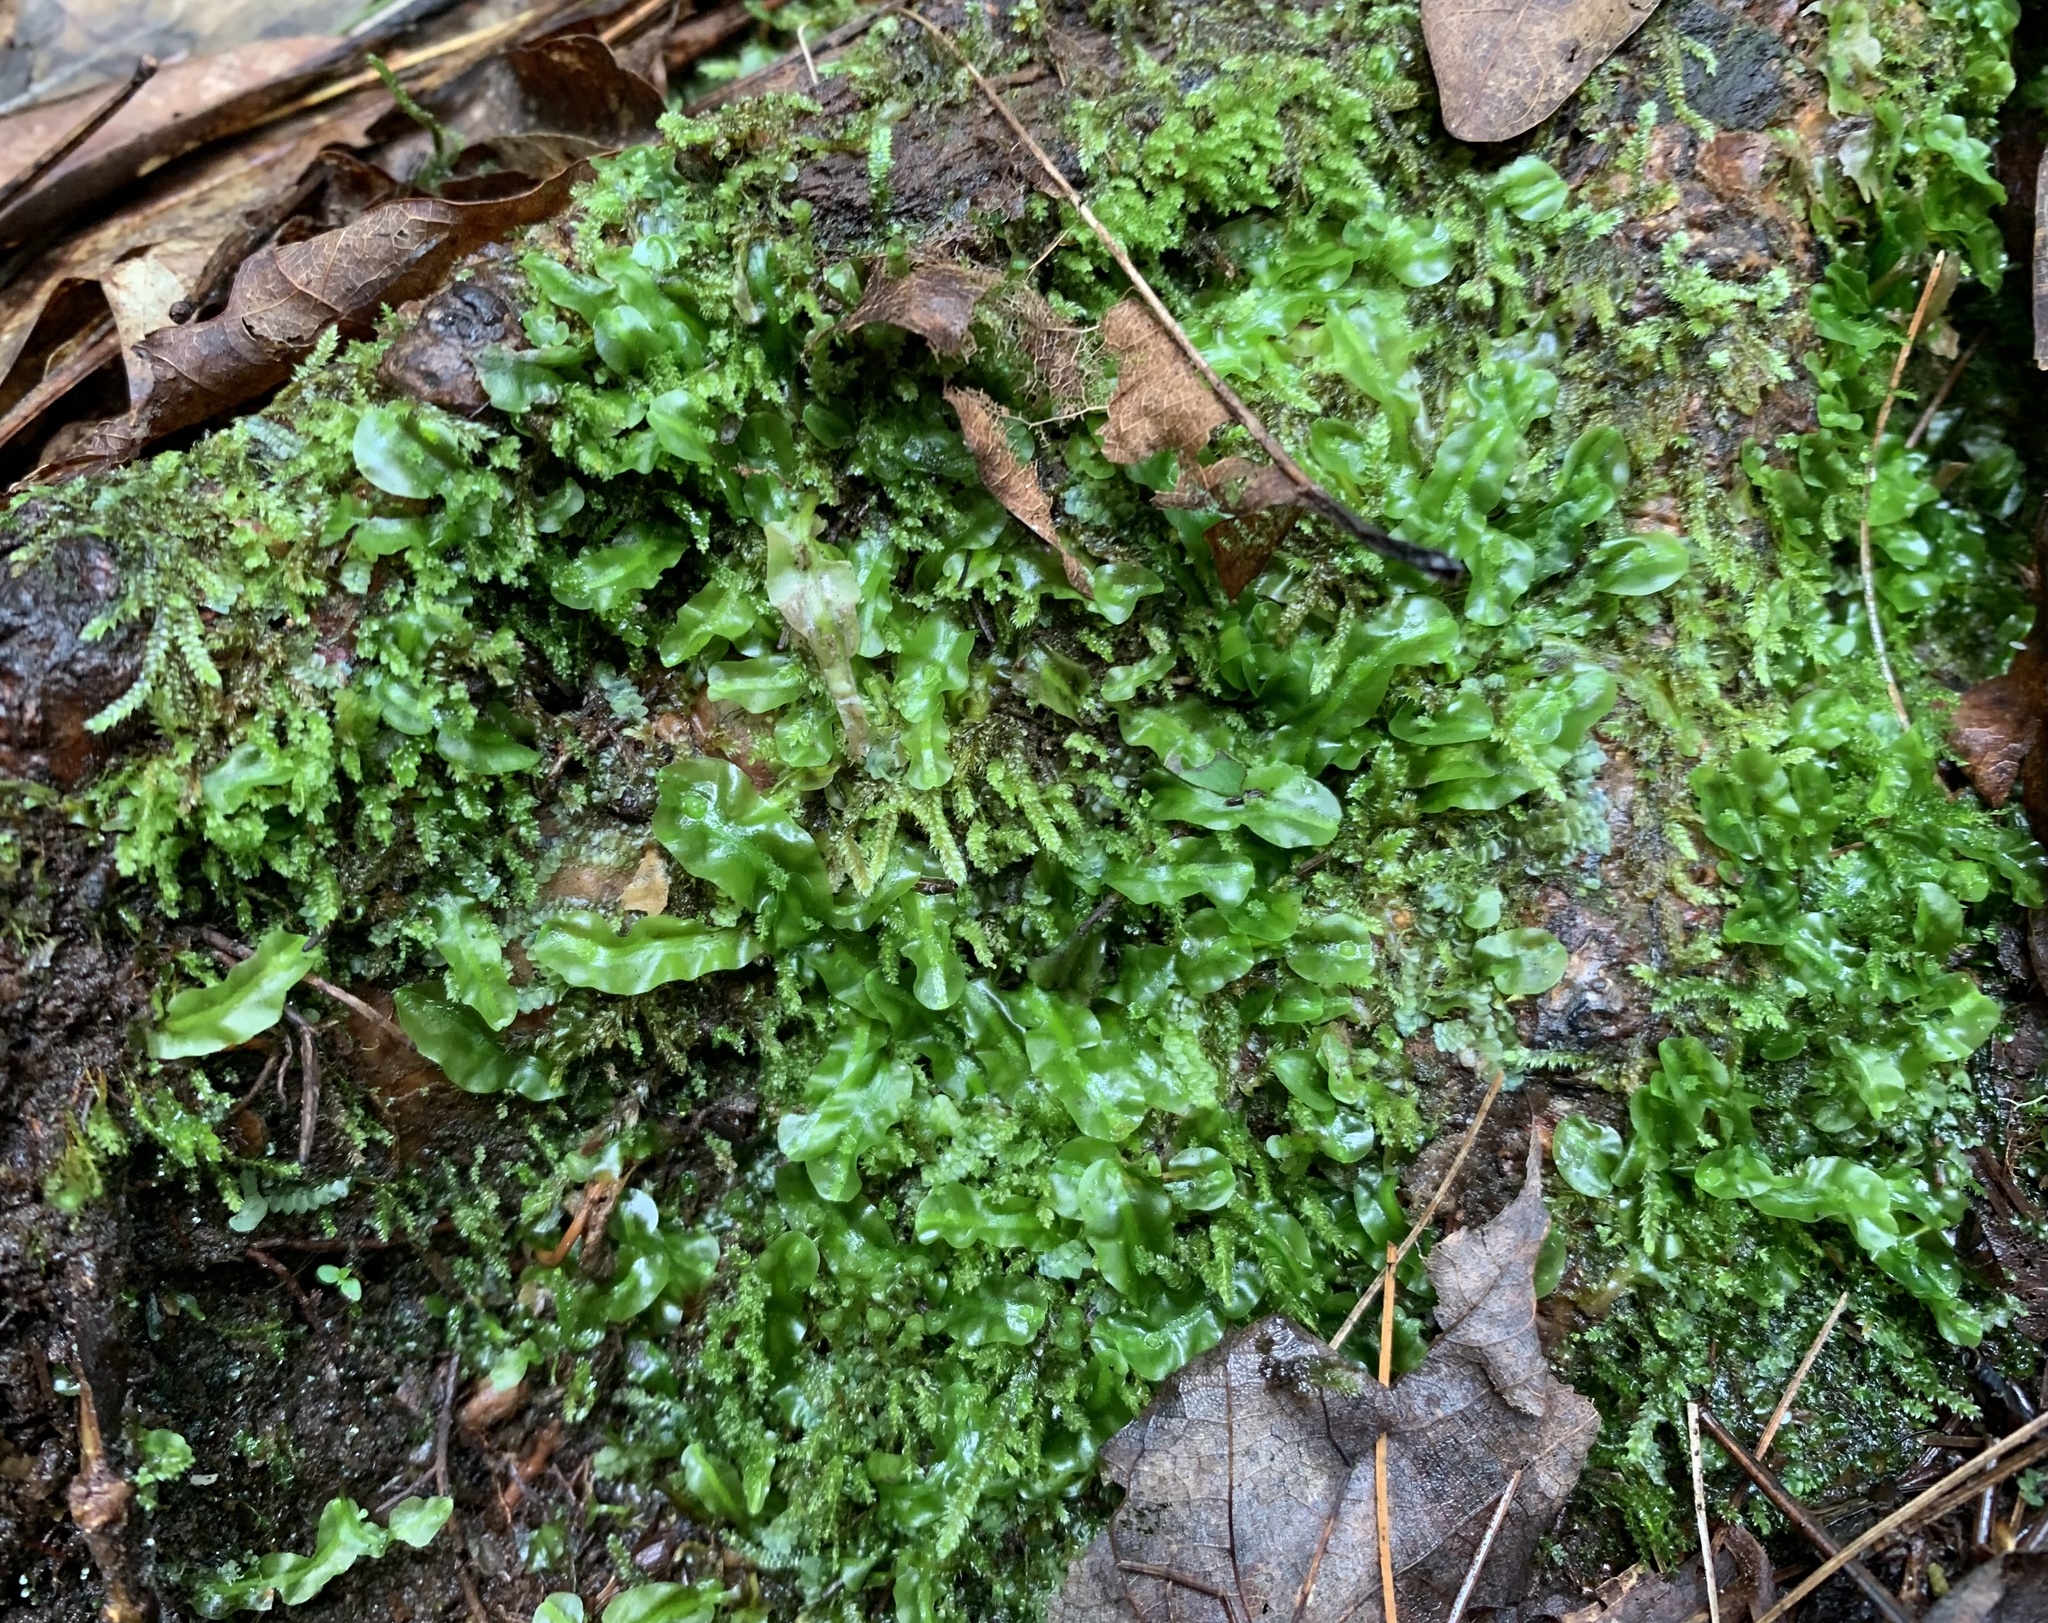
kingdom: Plantae
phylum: Marchantiophyta
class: Jungermanniopsida
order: Pallaviciniales
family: Pallaviciniaceae
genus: Pallavicinia
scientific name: Pallavicinia lyellii
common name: Veilwort
